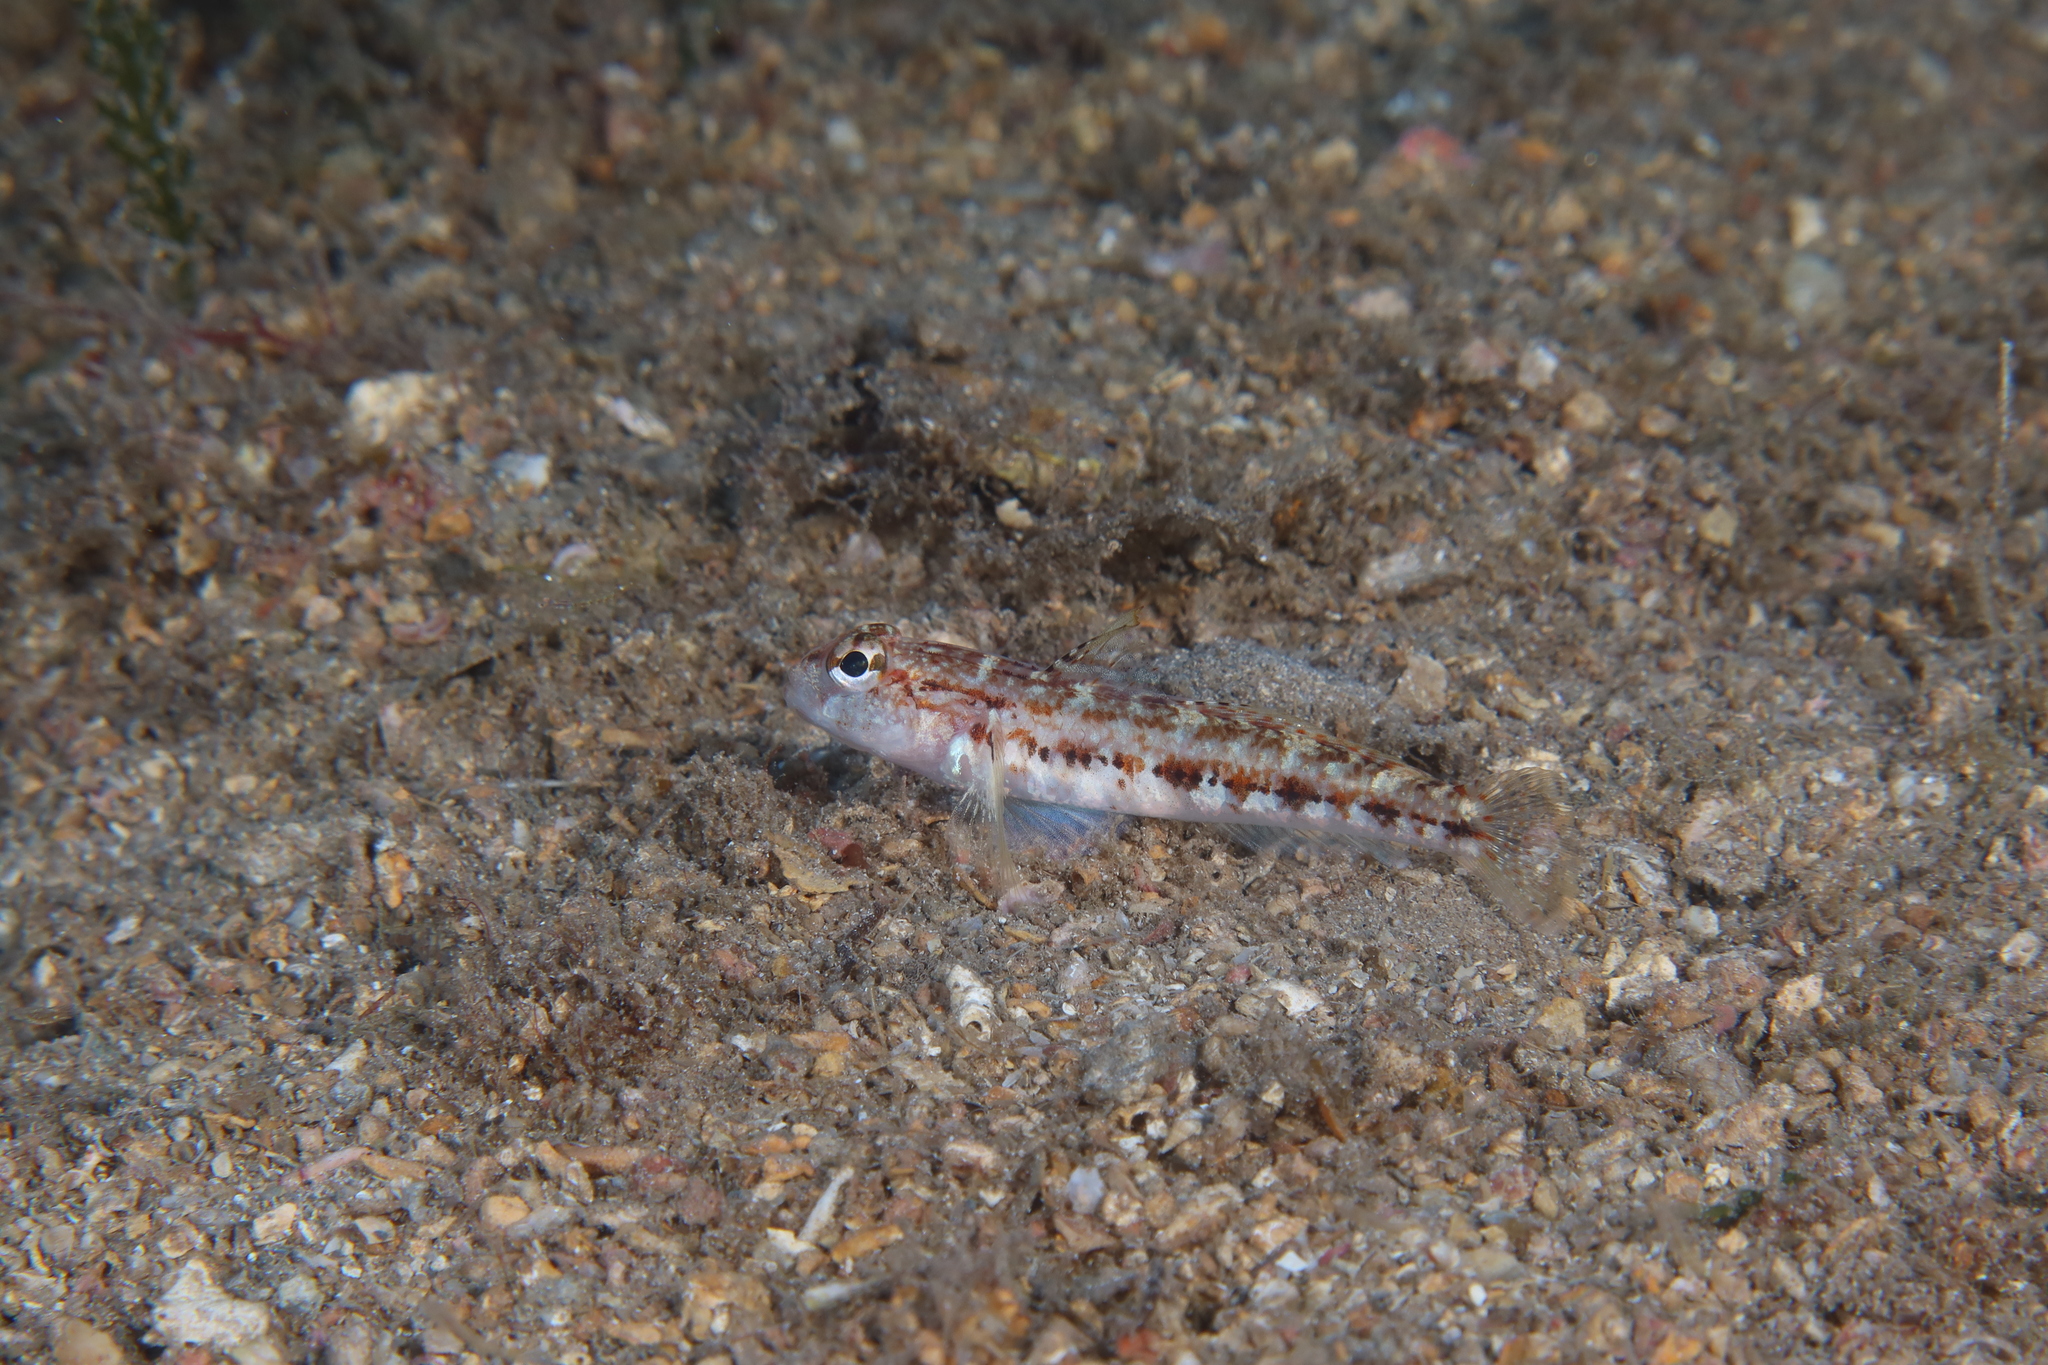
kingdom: Animalia
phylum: Chordata
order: Perciformes
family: Gobiidae
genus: Gobius
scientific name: Gobius roulei
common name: Roule's goby
